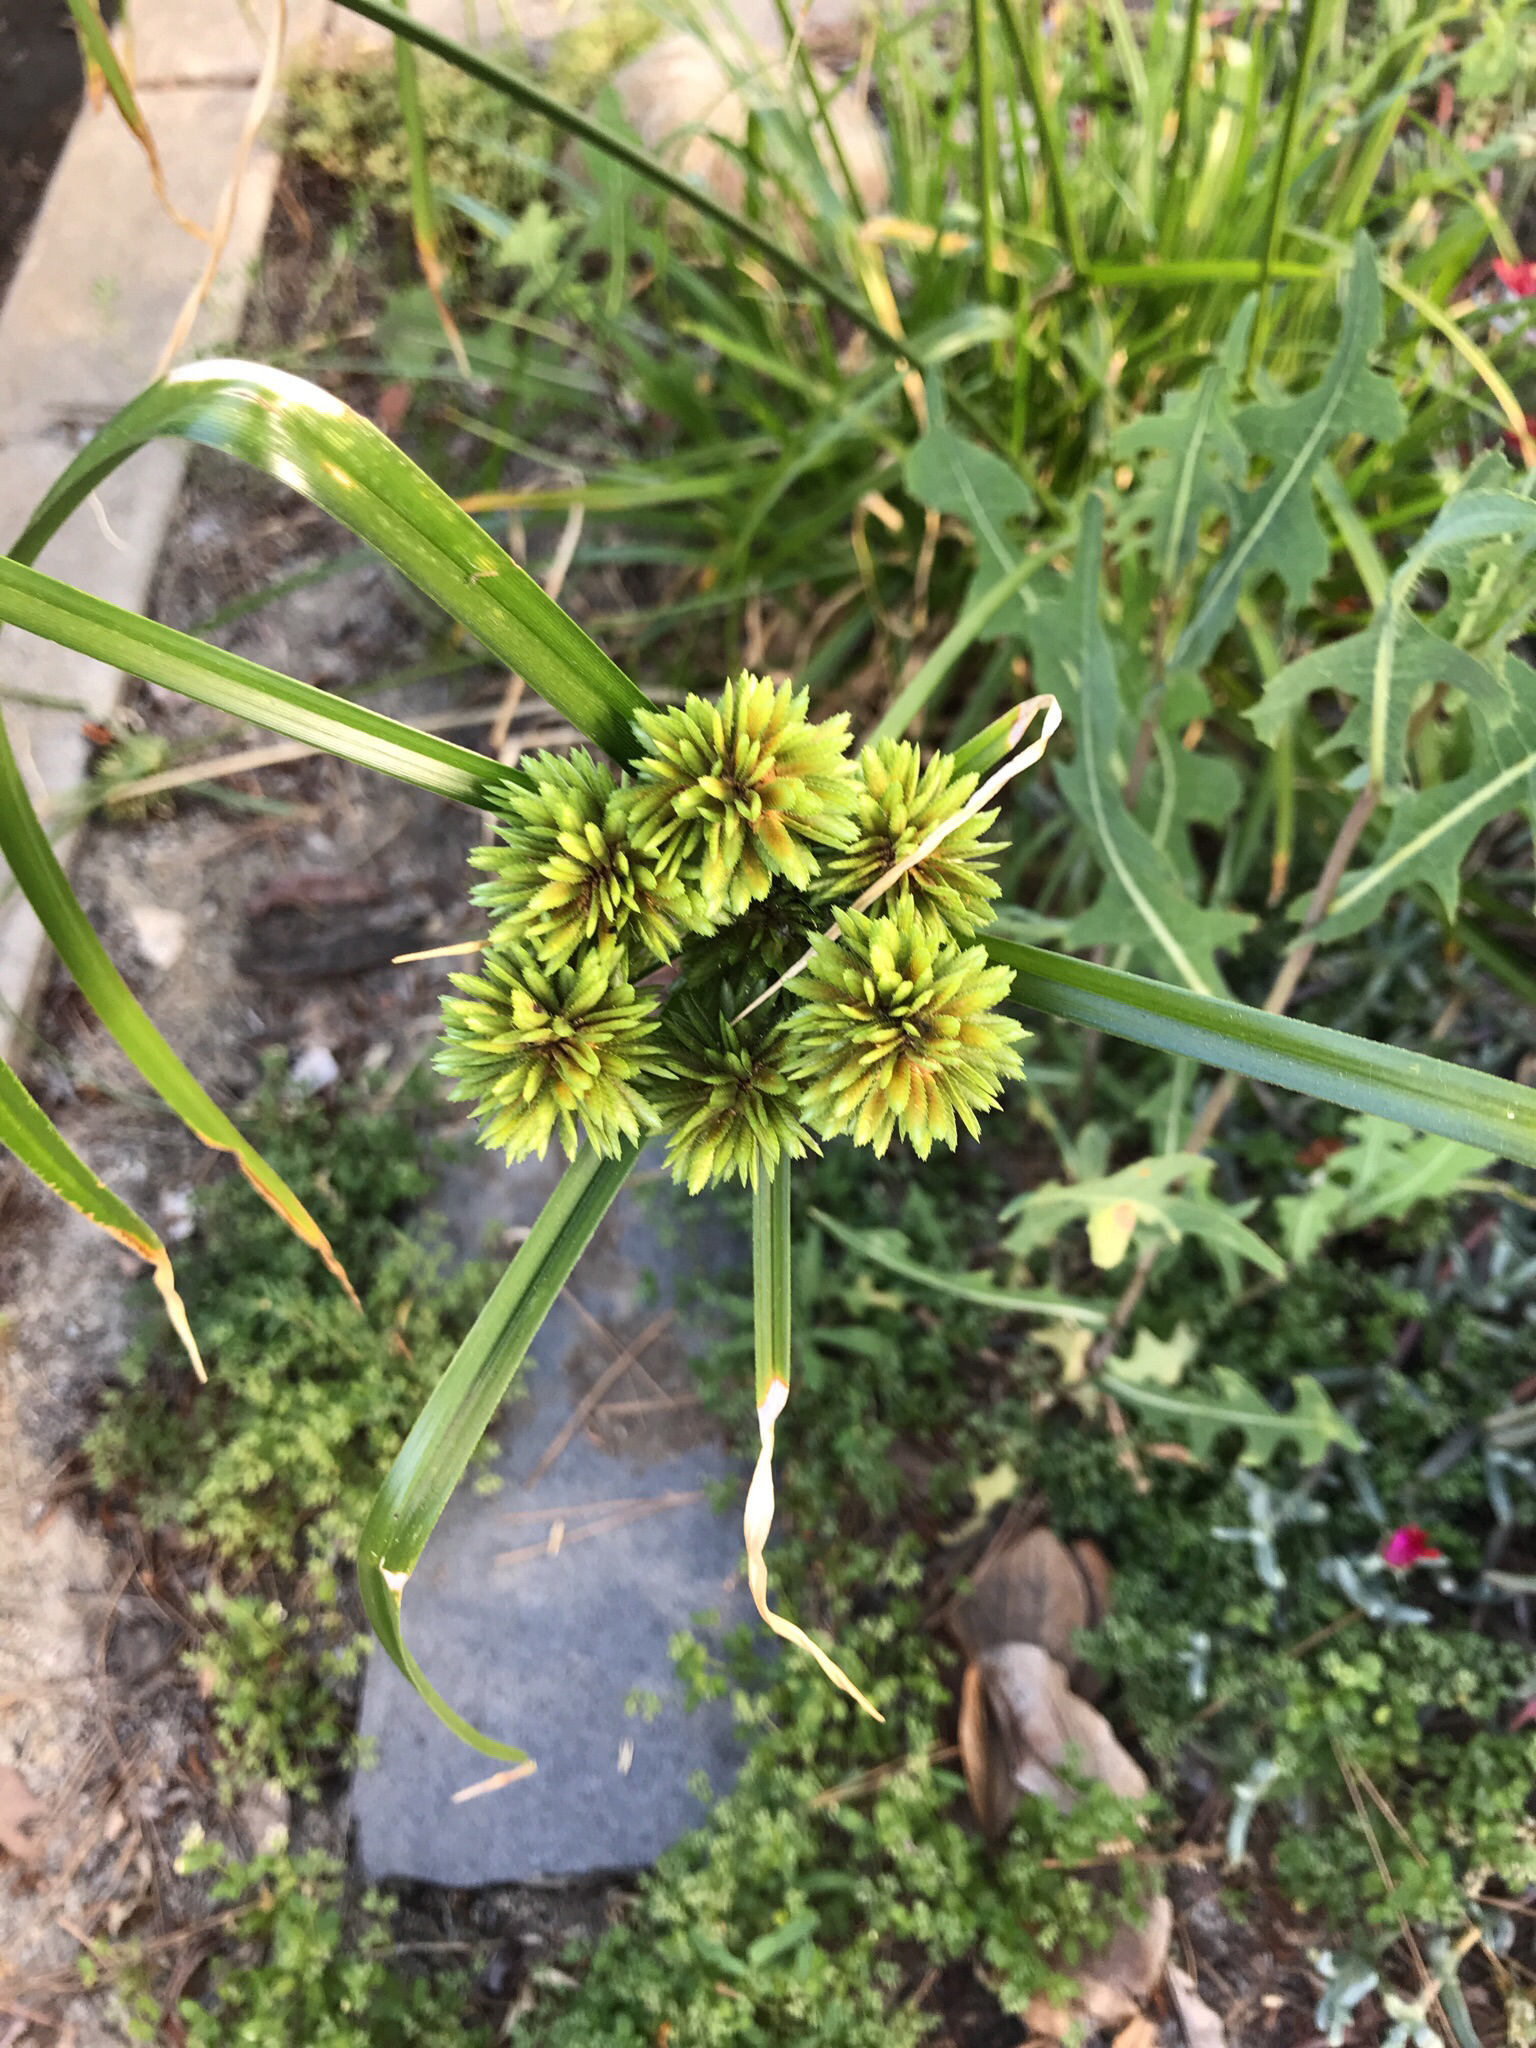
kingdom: Plantae
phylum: Tracheophyta
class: Liliopsida
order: Poales
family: Cyperaceae
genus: Cyperus
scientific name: Cyperus eragrostis
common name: Tall flatsedge
